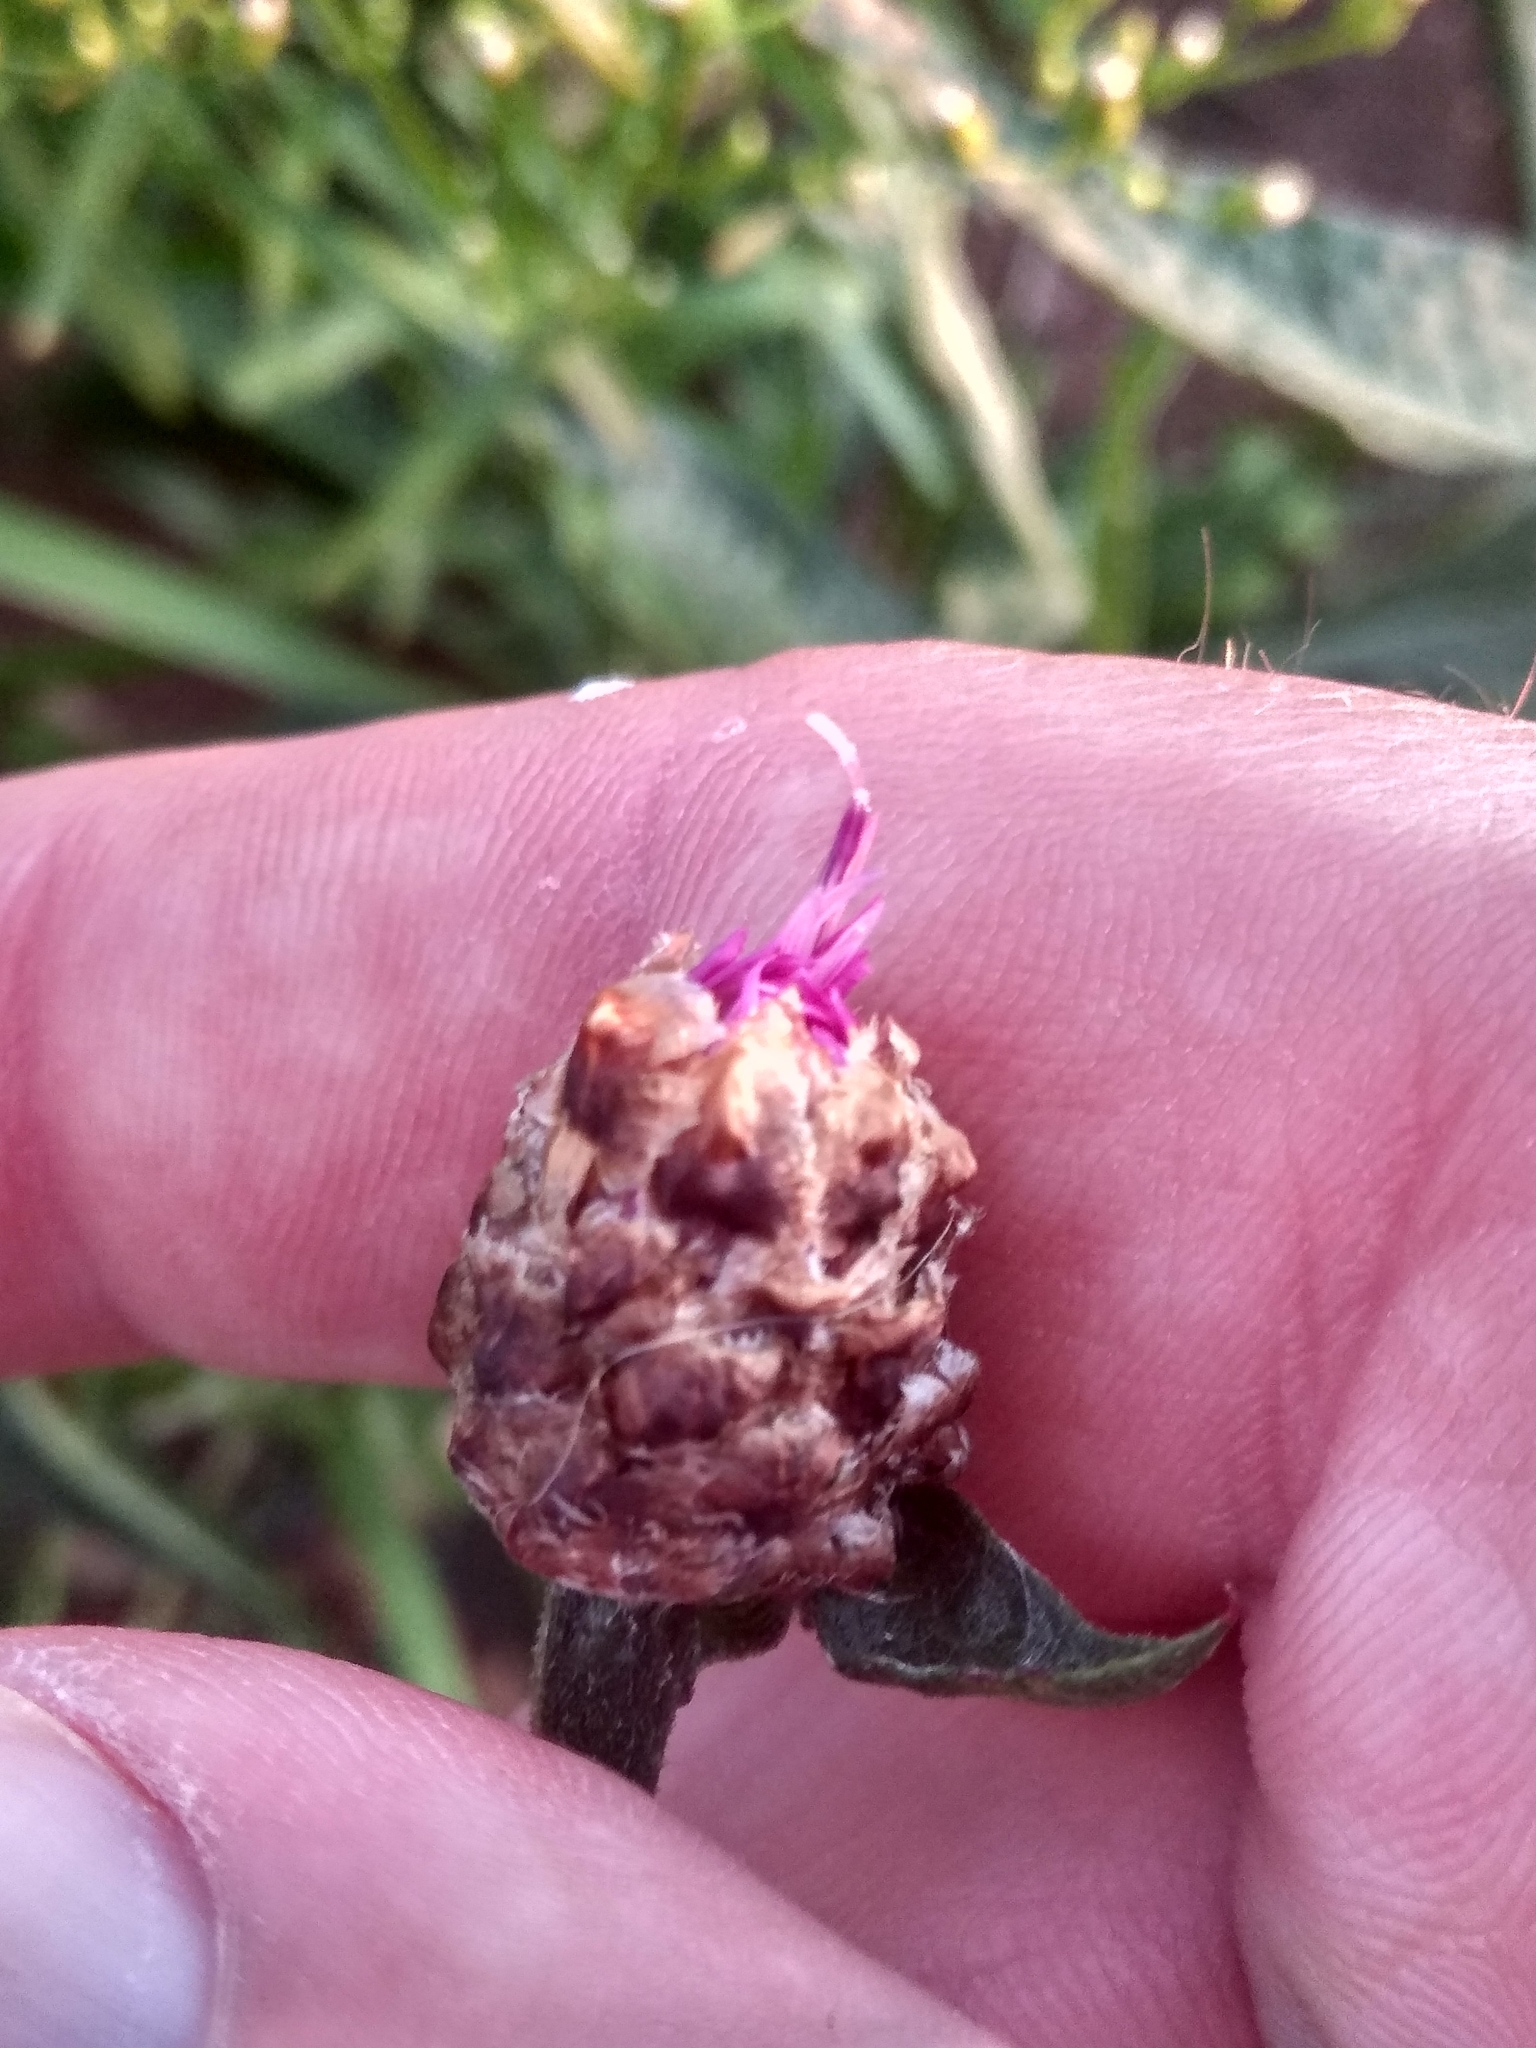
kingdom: Plantae
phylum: Tracheophyta
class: Magnoliopsida
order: Asterales
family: Asteraceae
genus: Centaurea
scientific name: Centaurea jacea
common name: Brown knapweed
